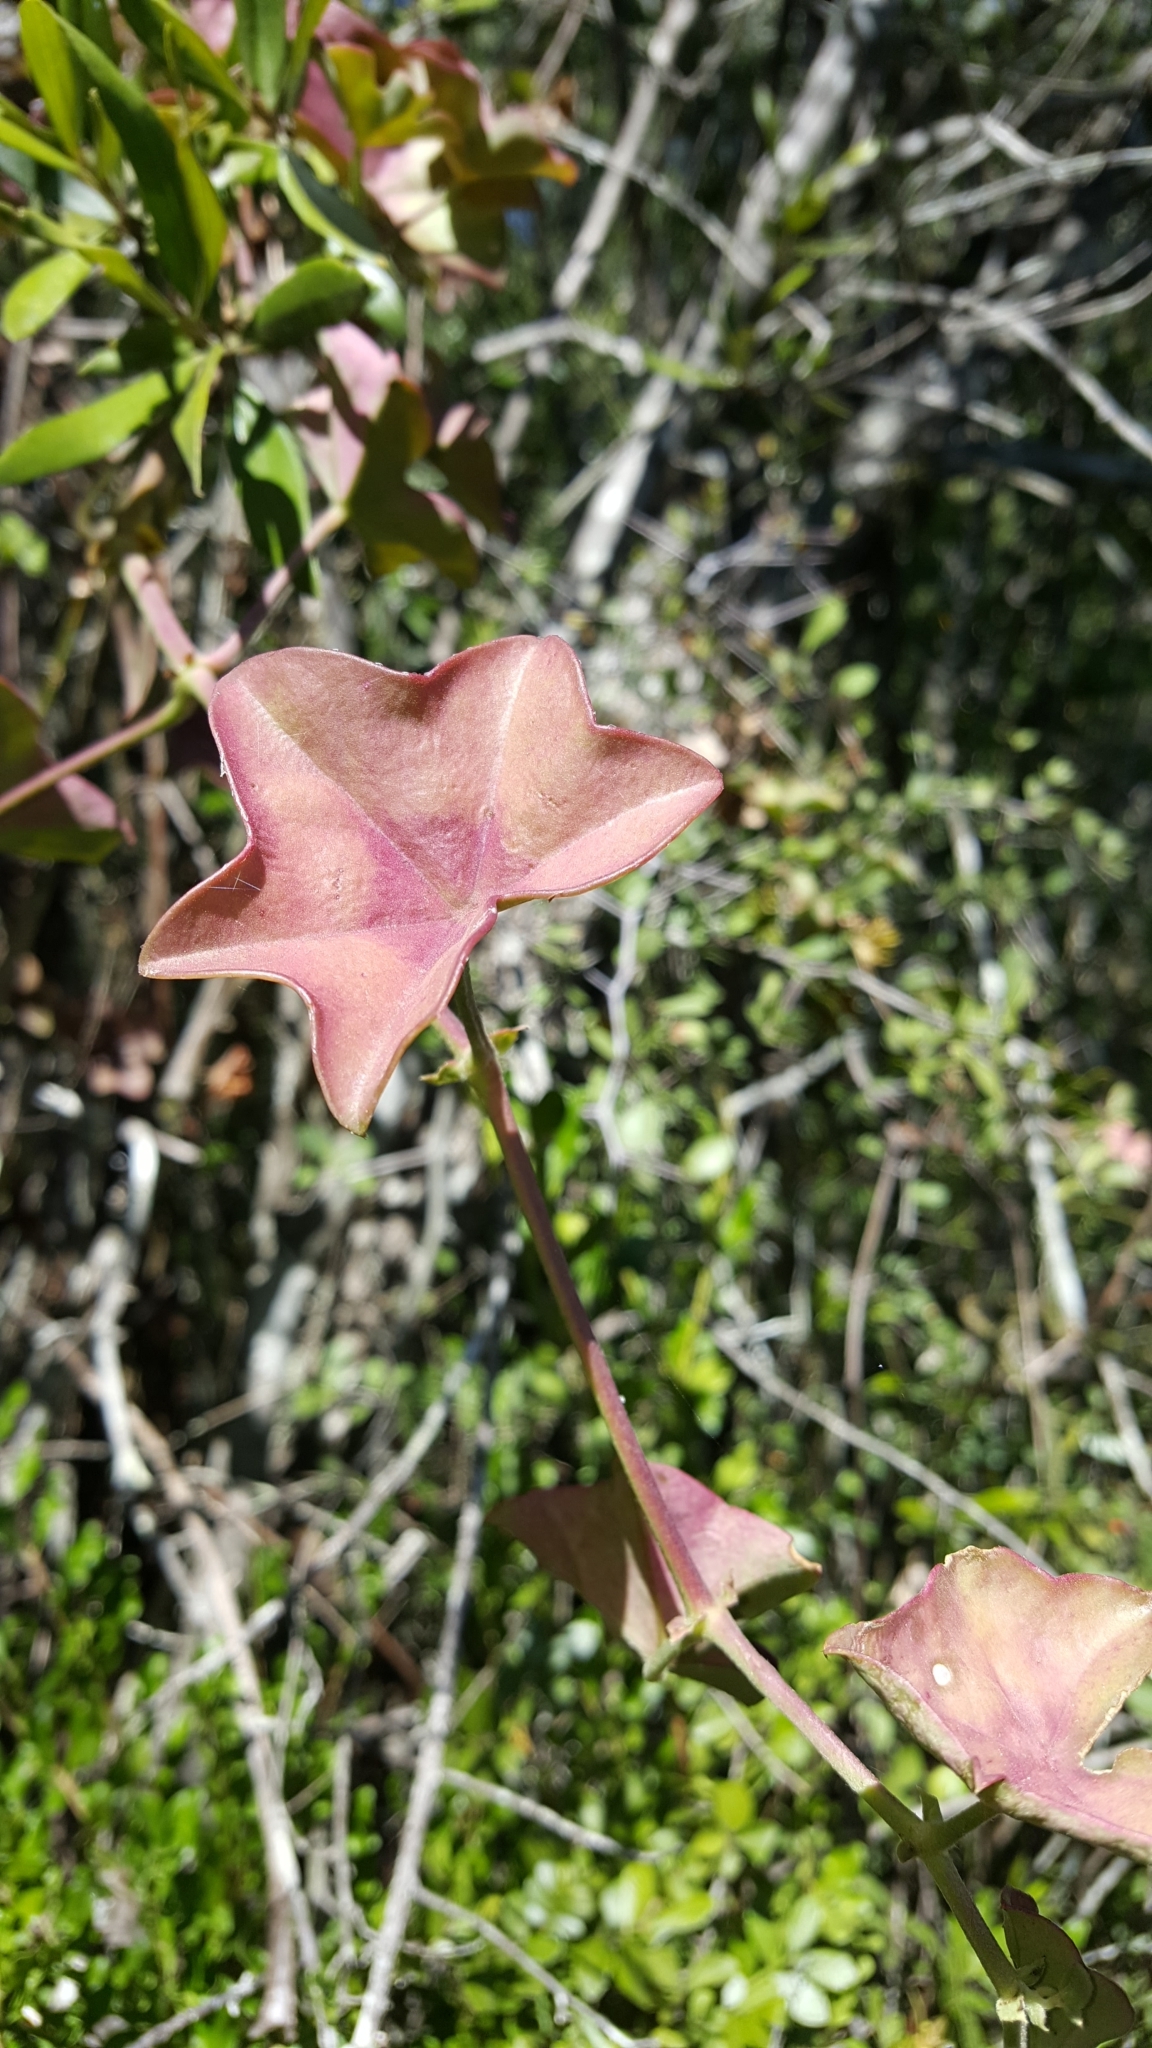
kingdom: Plantae
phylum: Tracheophyta
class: Magnoliopsida
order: Geraniales
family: Geraniaceae
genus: Pelargonium
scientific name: Pelargonium peltatum
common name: Ivyleaf geranium
